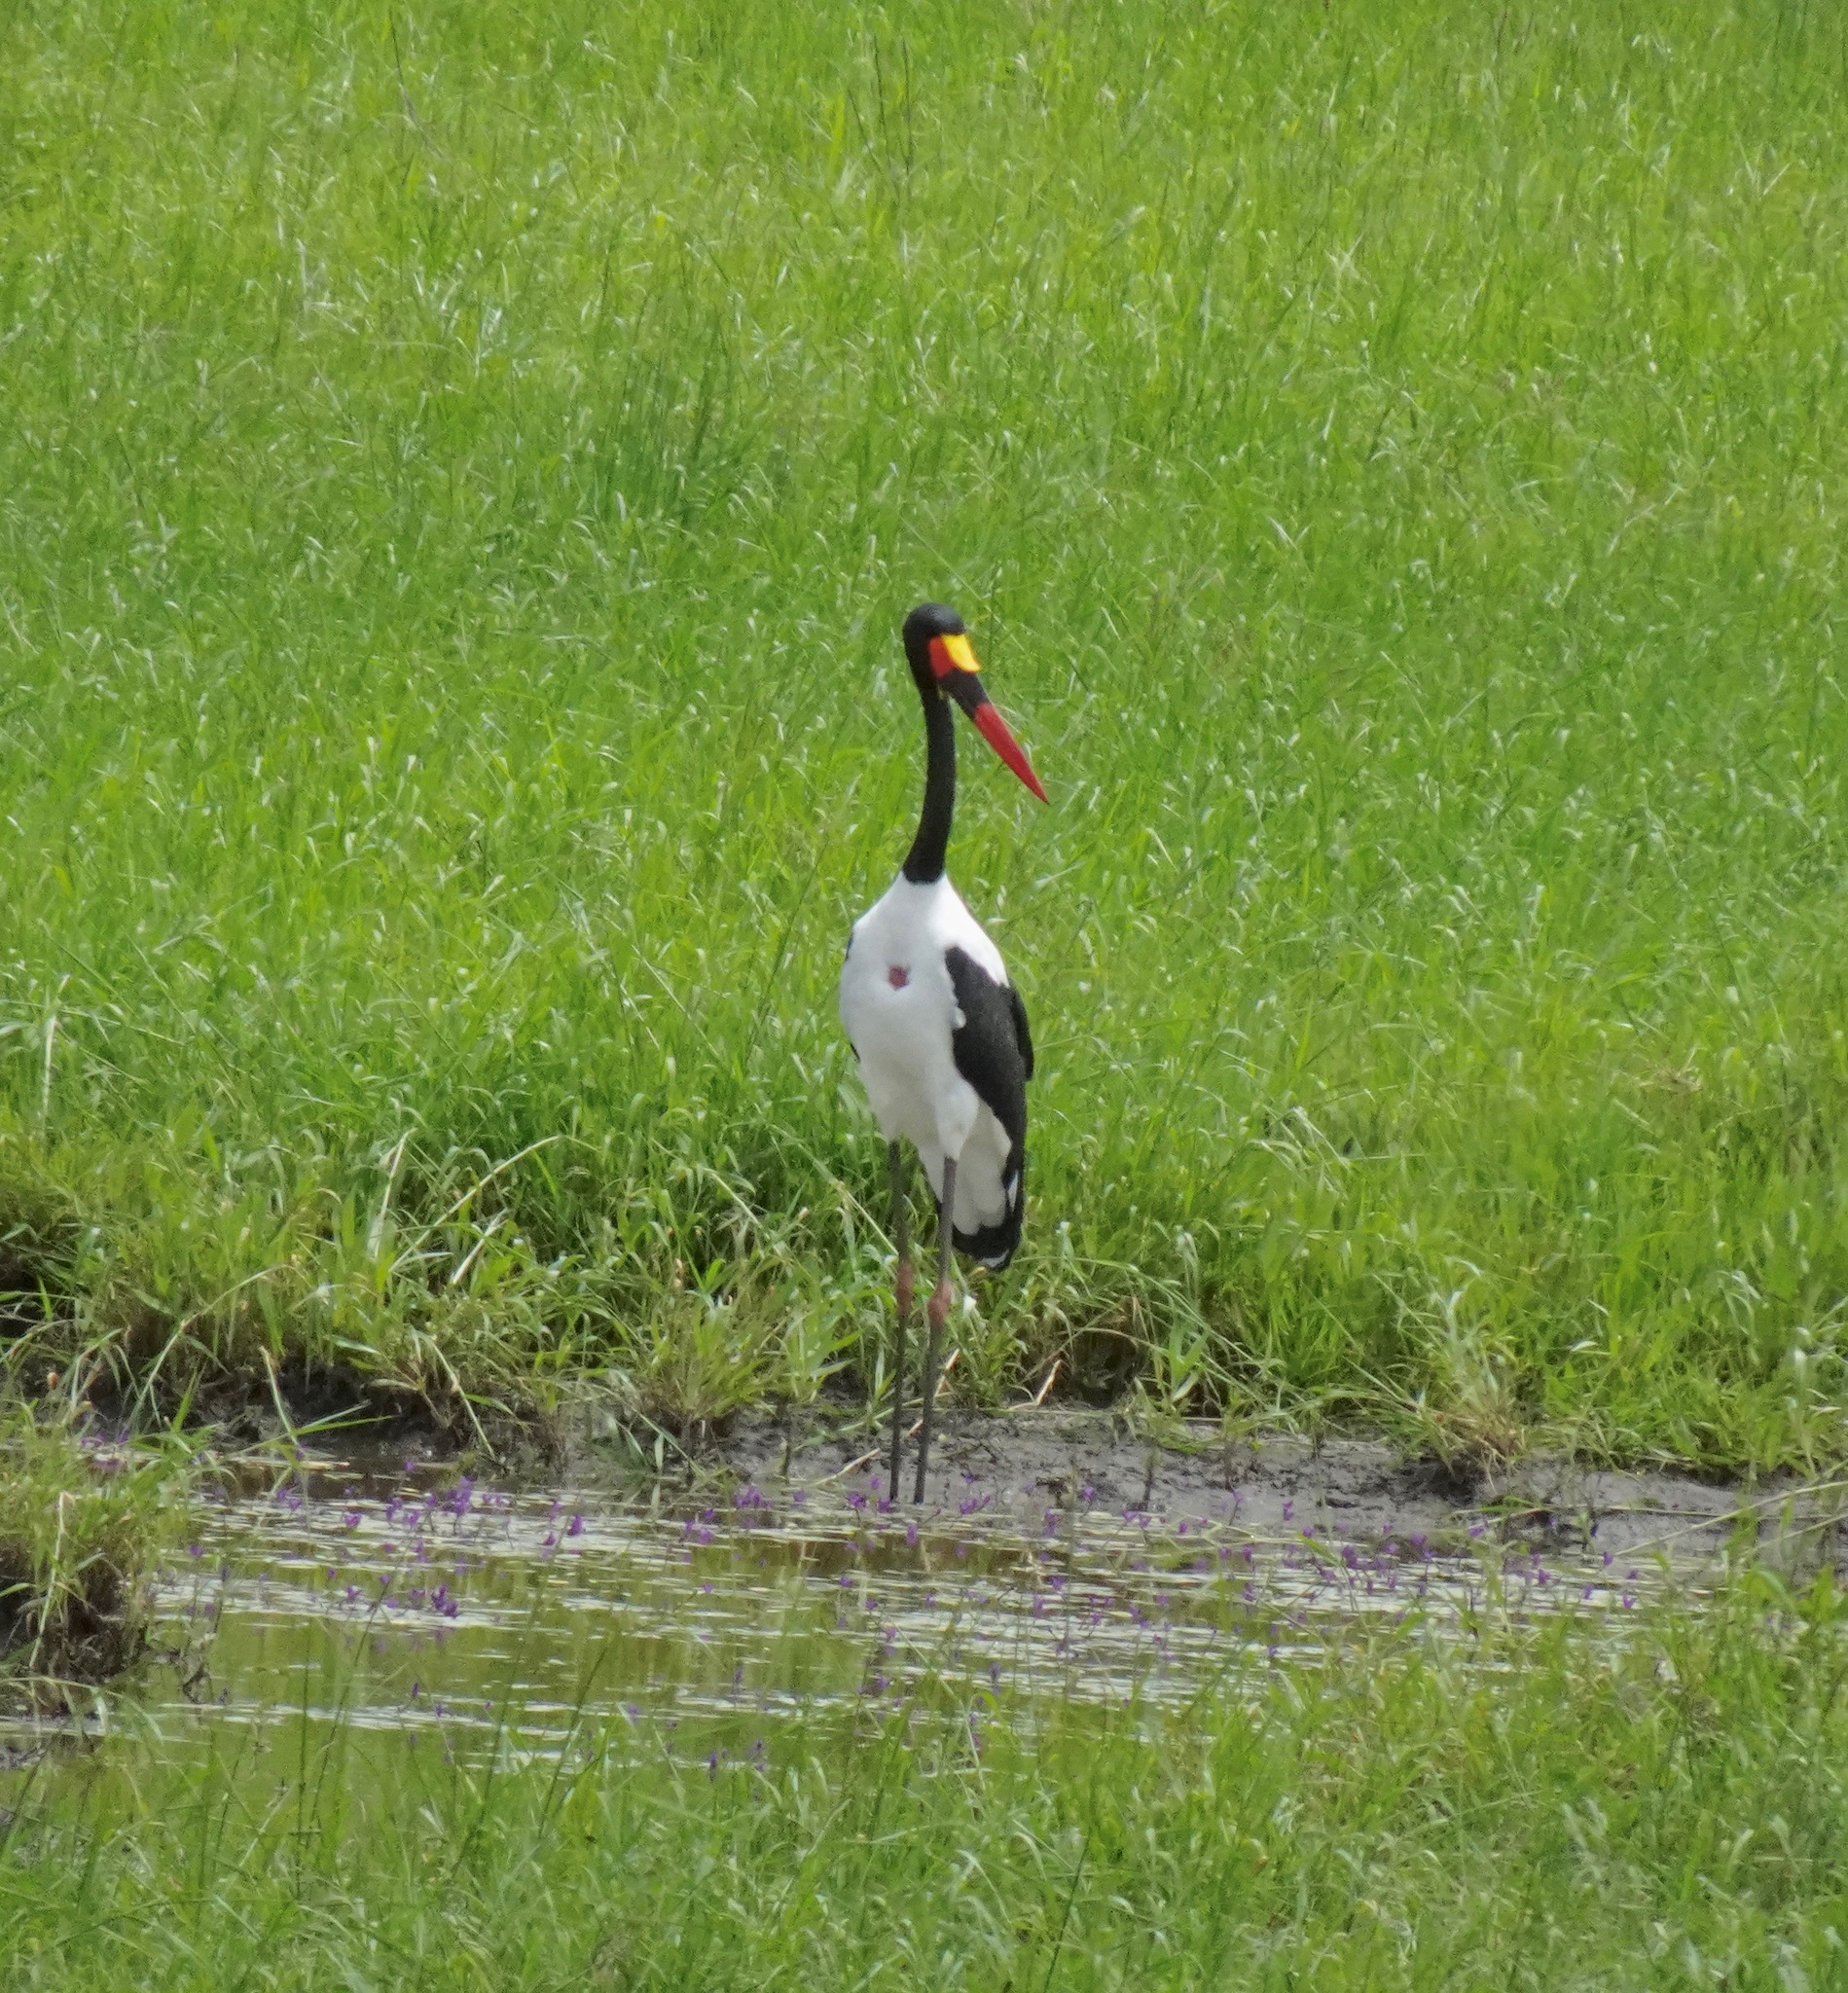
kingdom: Animalia
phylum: Chordata
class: Aves
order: Ciconiiformes
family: Ciconiidae
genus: Ephippiorhynchus
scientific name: Ephippiorhynchus senegalensis
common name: Saddle-billed stork
